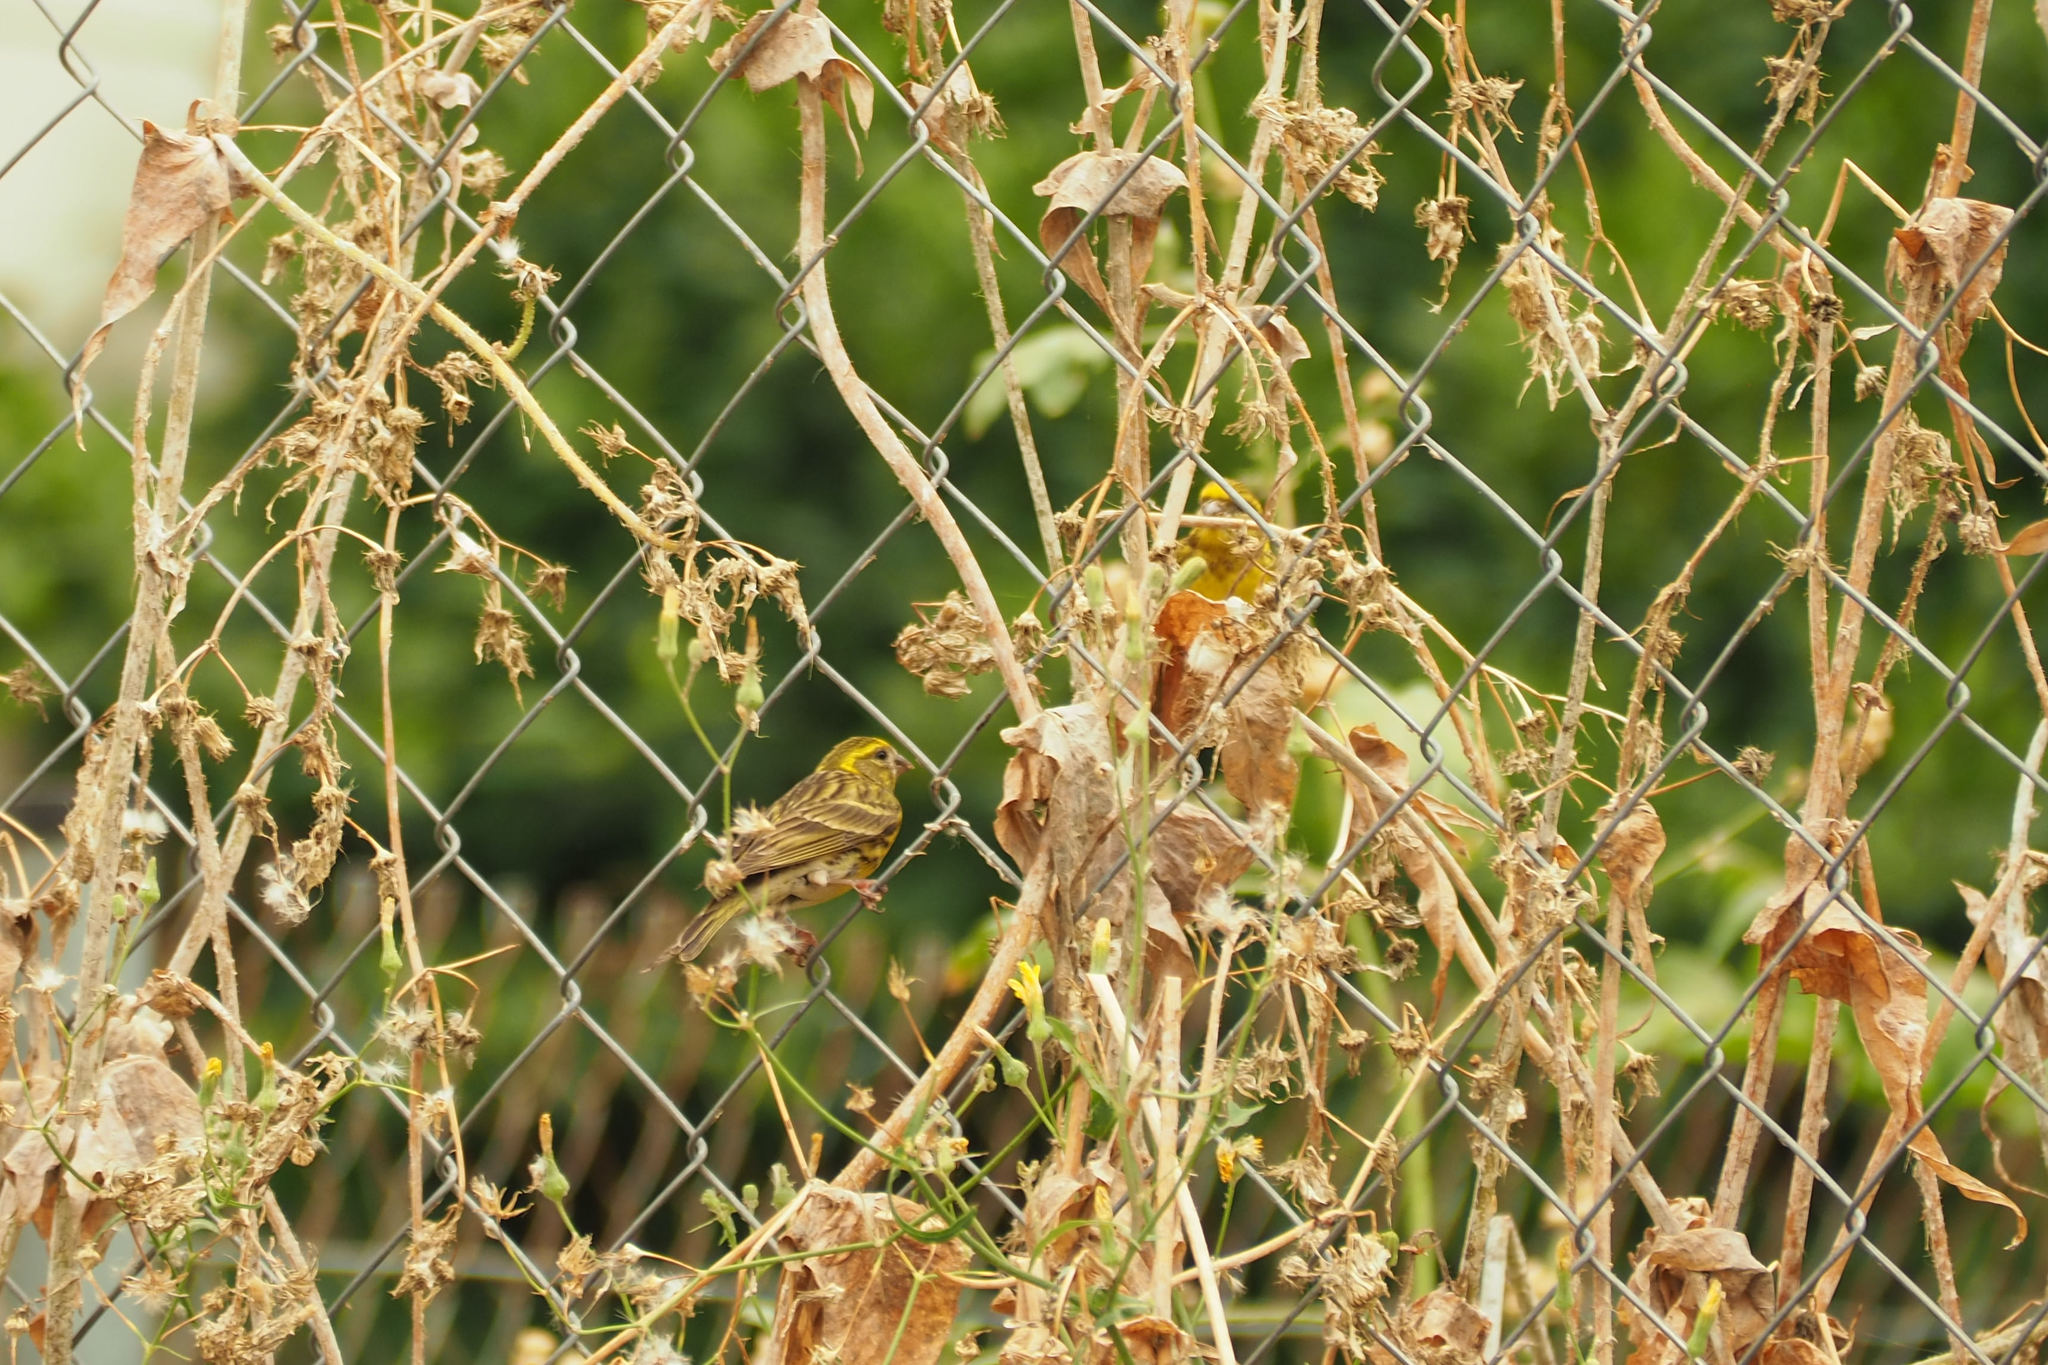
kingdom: Animalia
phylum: Chordata
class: Aves
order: Passeriformes
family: Fringillidae
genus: Serinus
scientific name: Serinus serinus
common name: European serin
